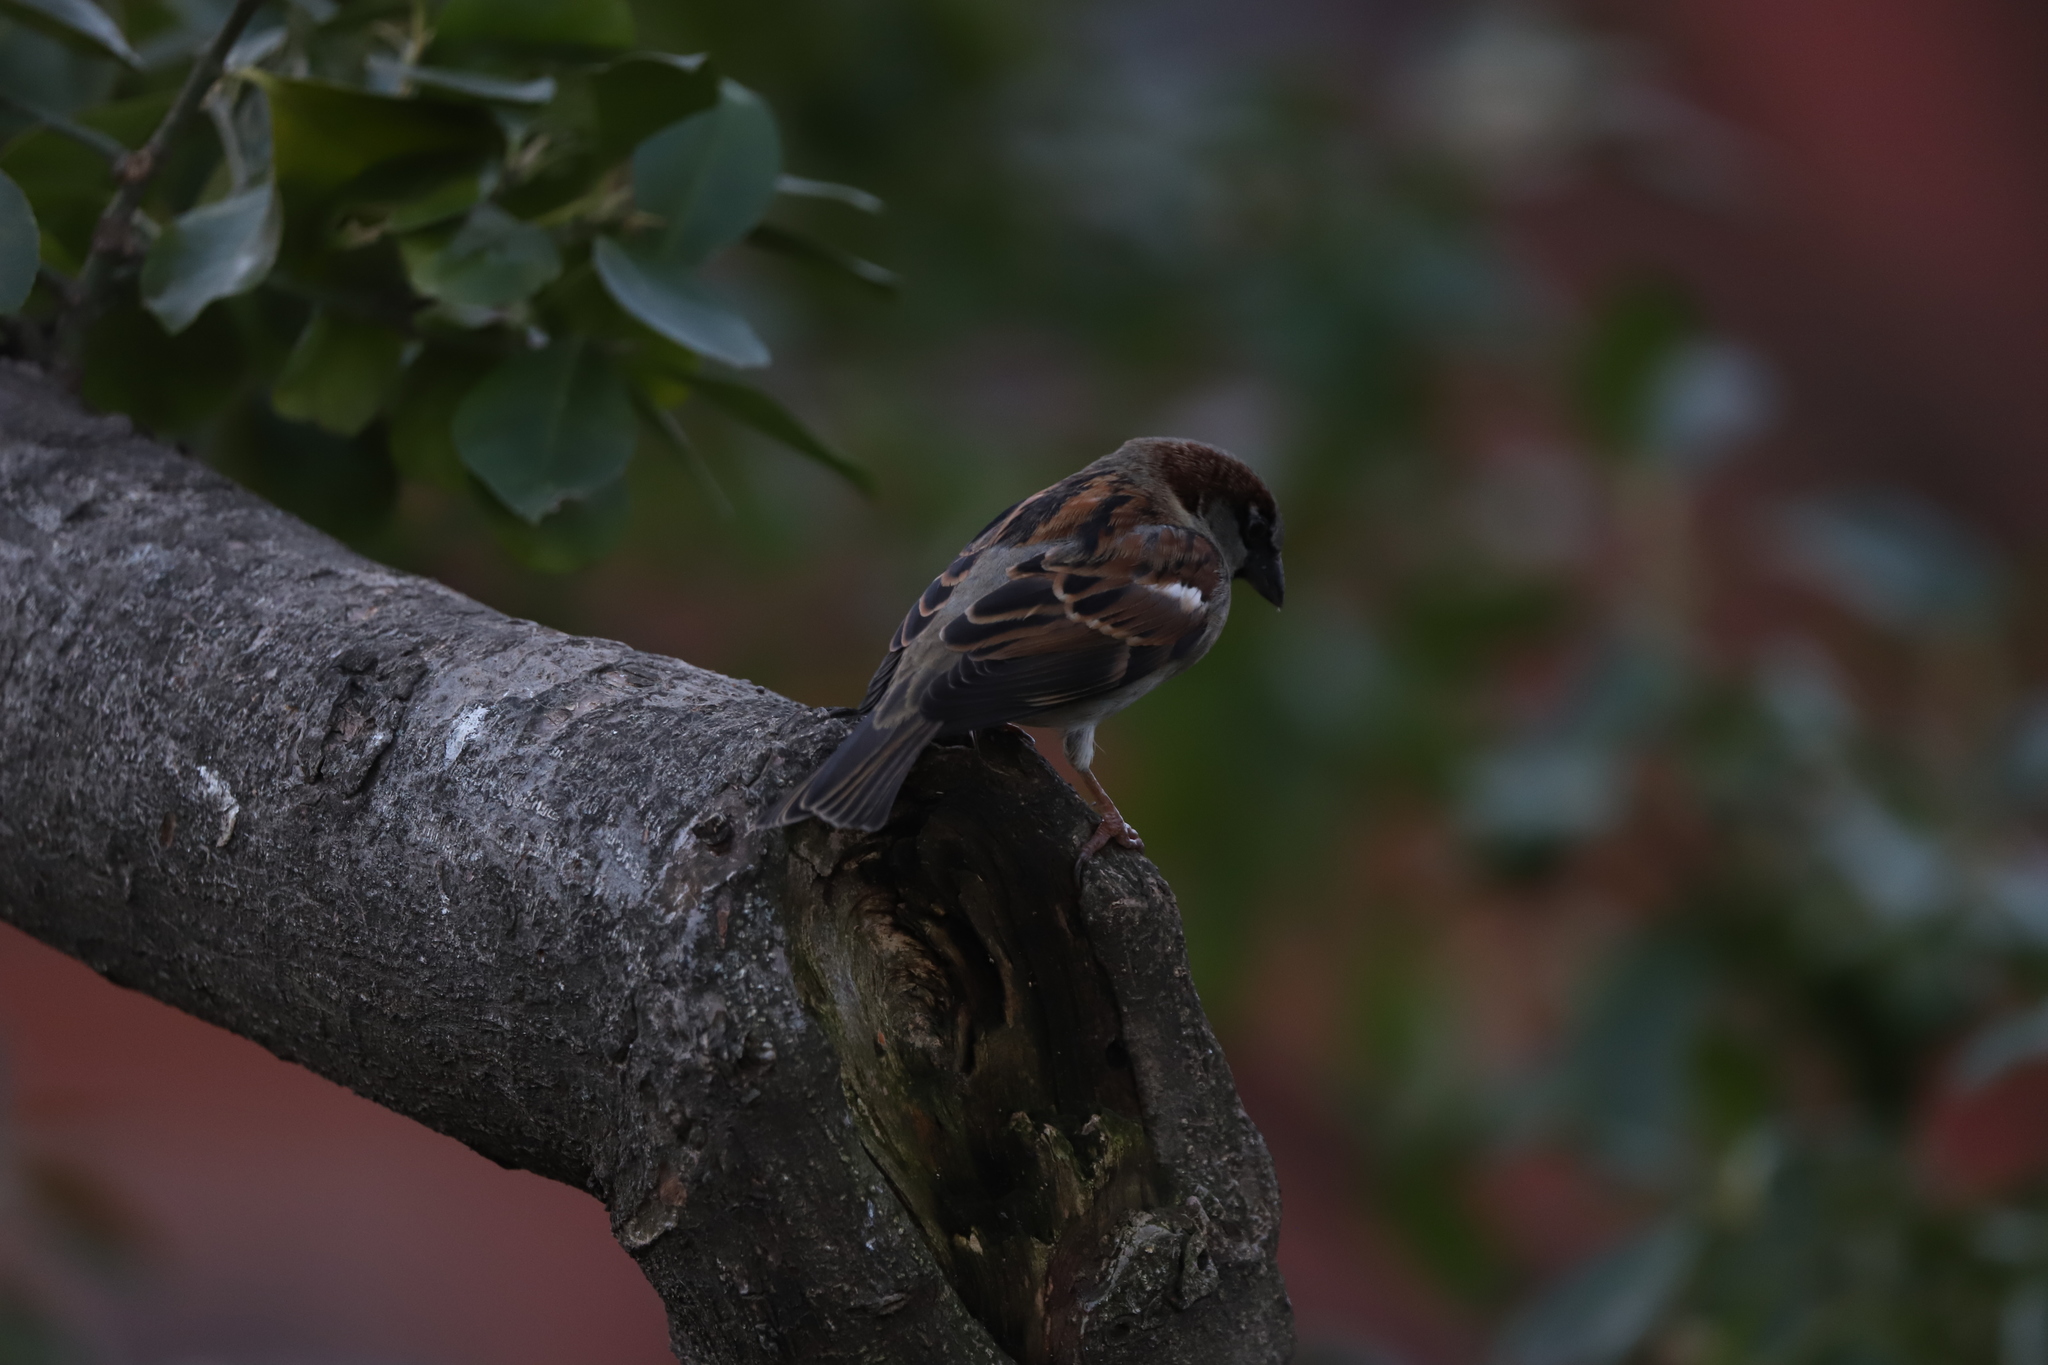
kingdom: Animalia
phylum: Chordata
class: Aves
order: Passeriformes
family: Passeridae
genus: Passer
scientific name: Passer domesticus
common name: House sparrow
